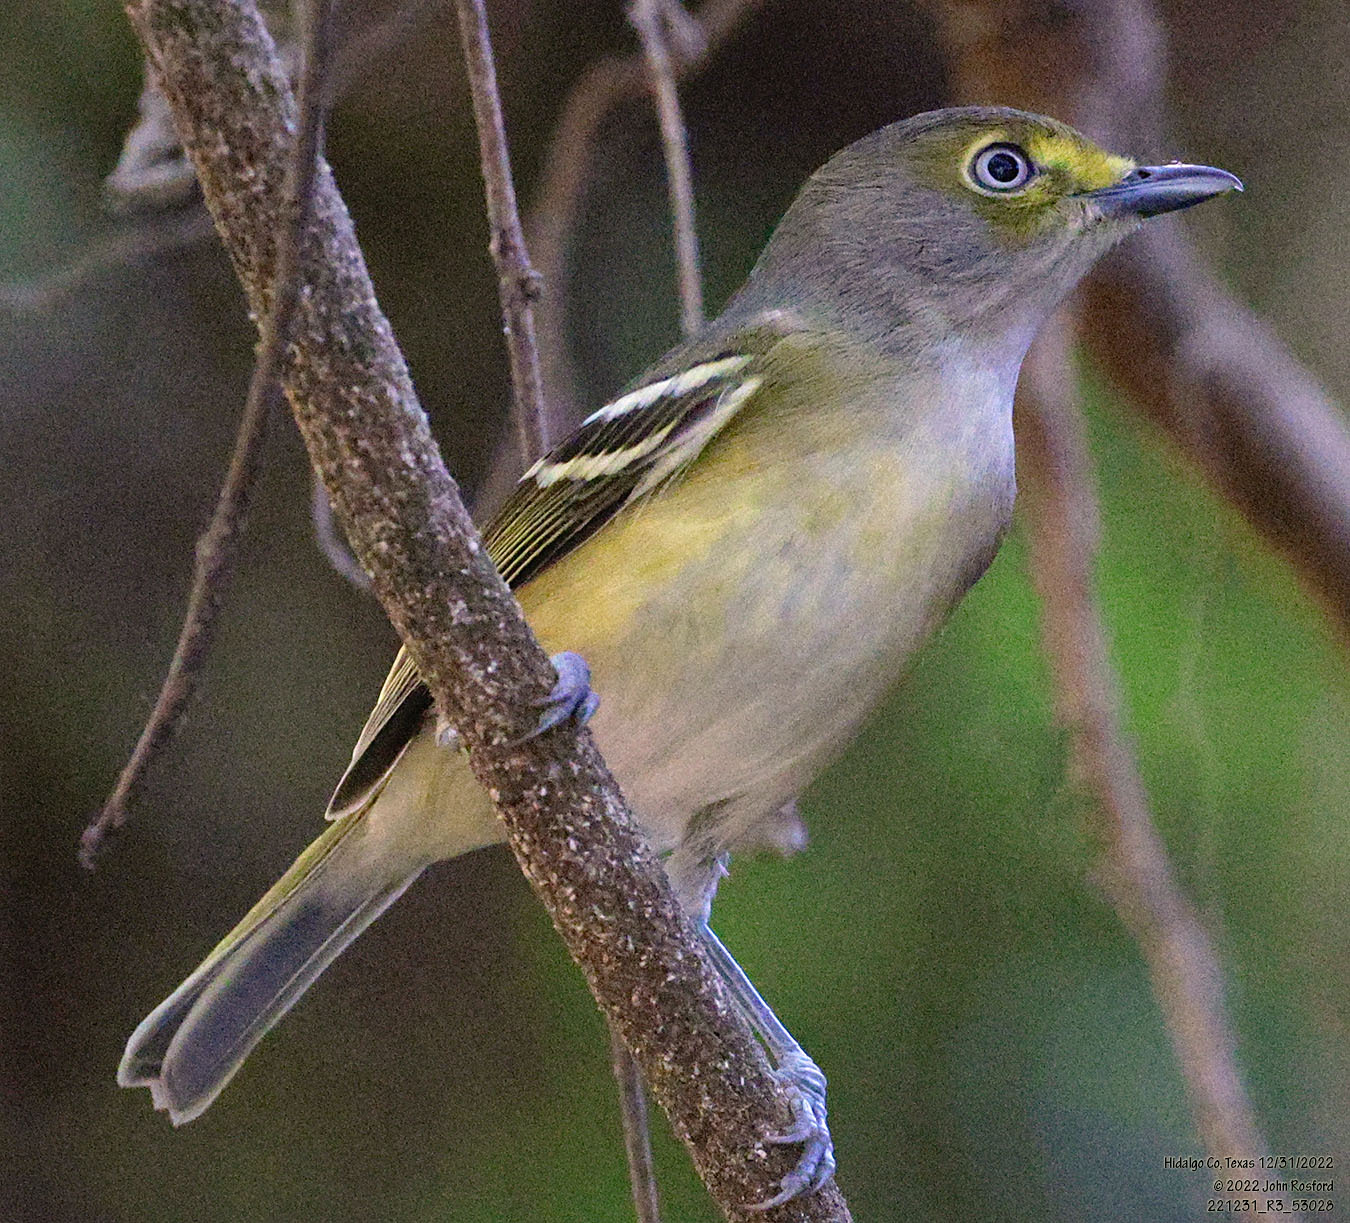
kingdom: Animalia
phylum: Chordata
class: Aves
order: Passeriformes
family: Vireonidae
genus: Vireo
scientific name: Vireo griseus
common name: White-eyed vireo
